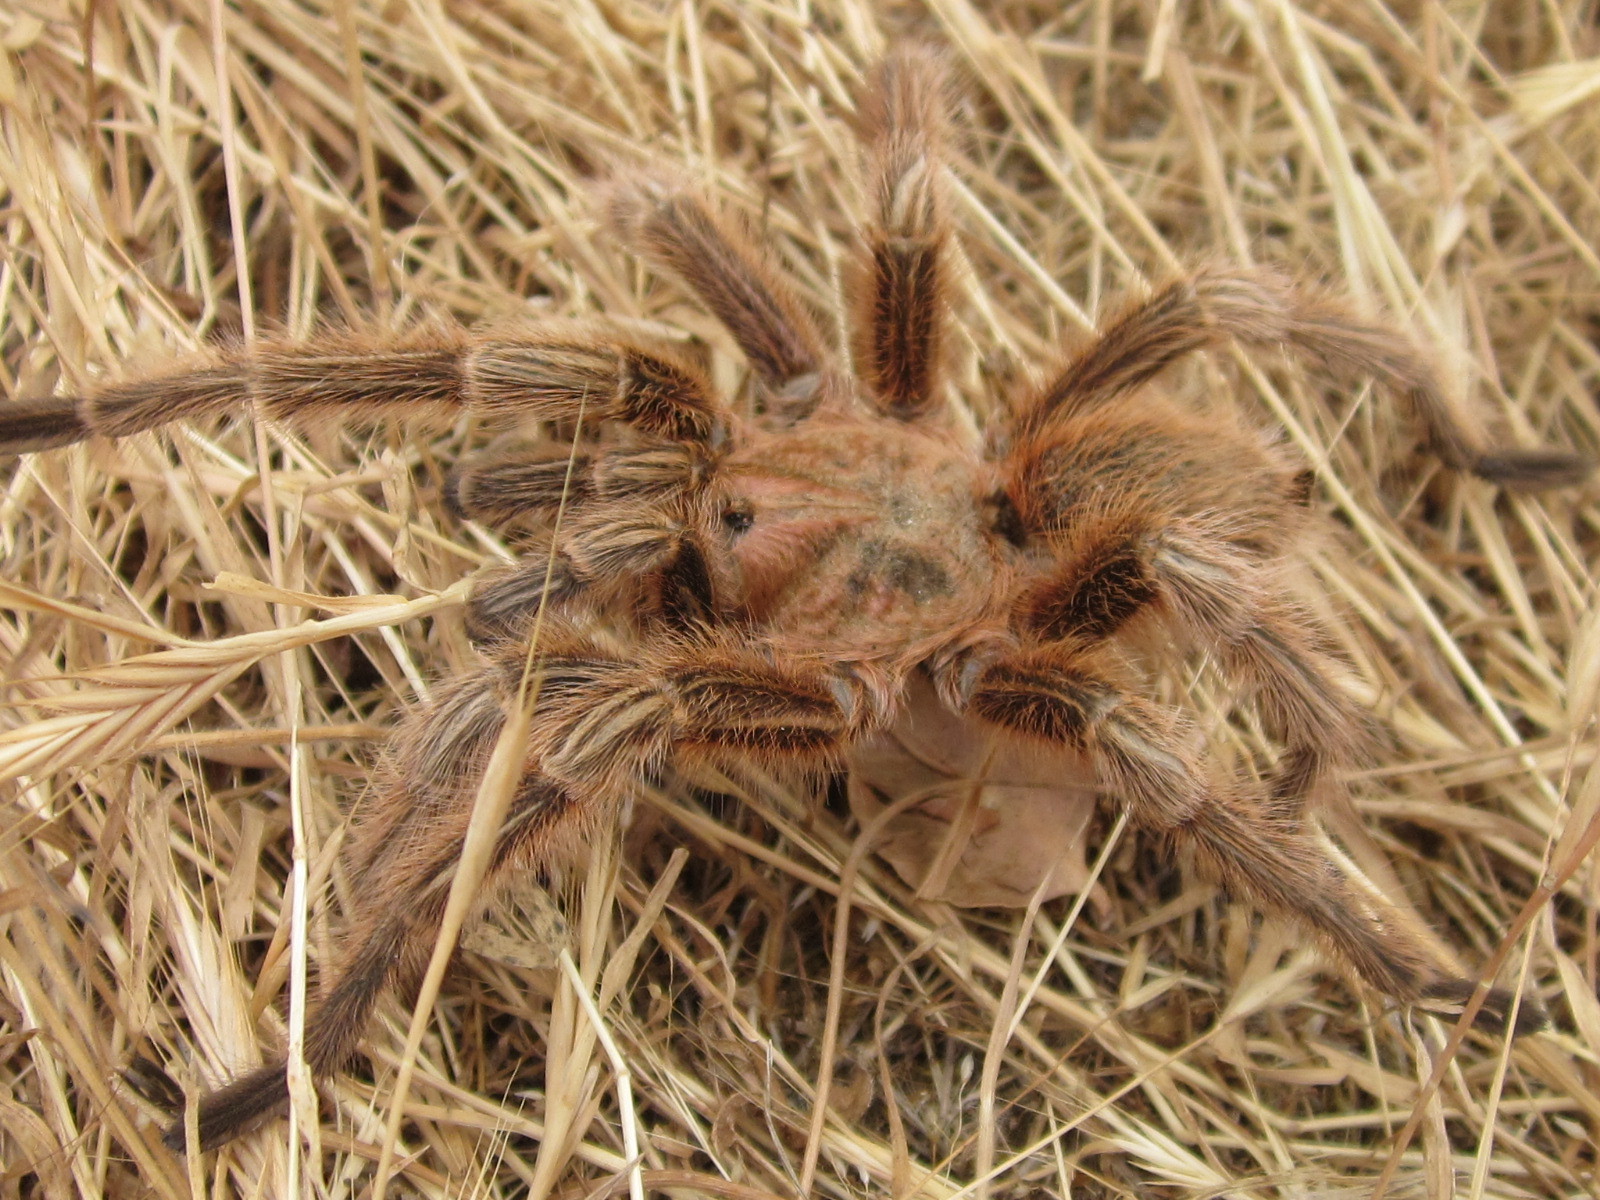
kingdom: Animalia
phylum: Arthropoda
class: Arachnida
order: Araneae
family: Theraphosidae
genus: Grammostola
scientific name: Grammostola rosea
